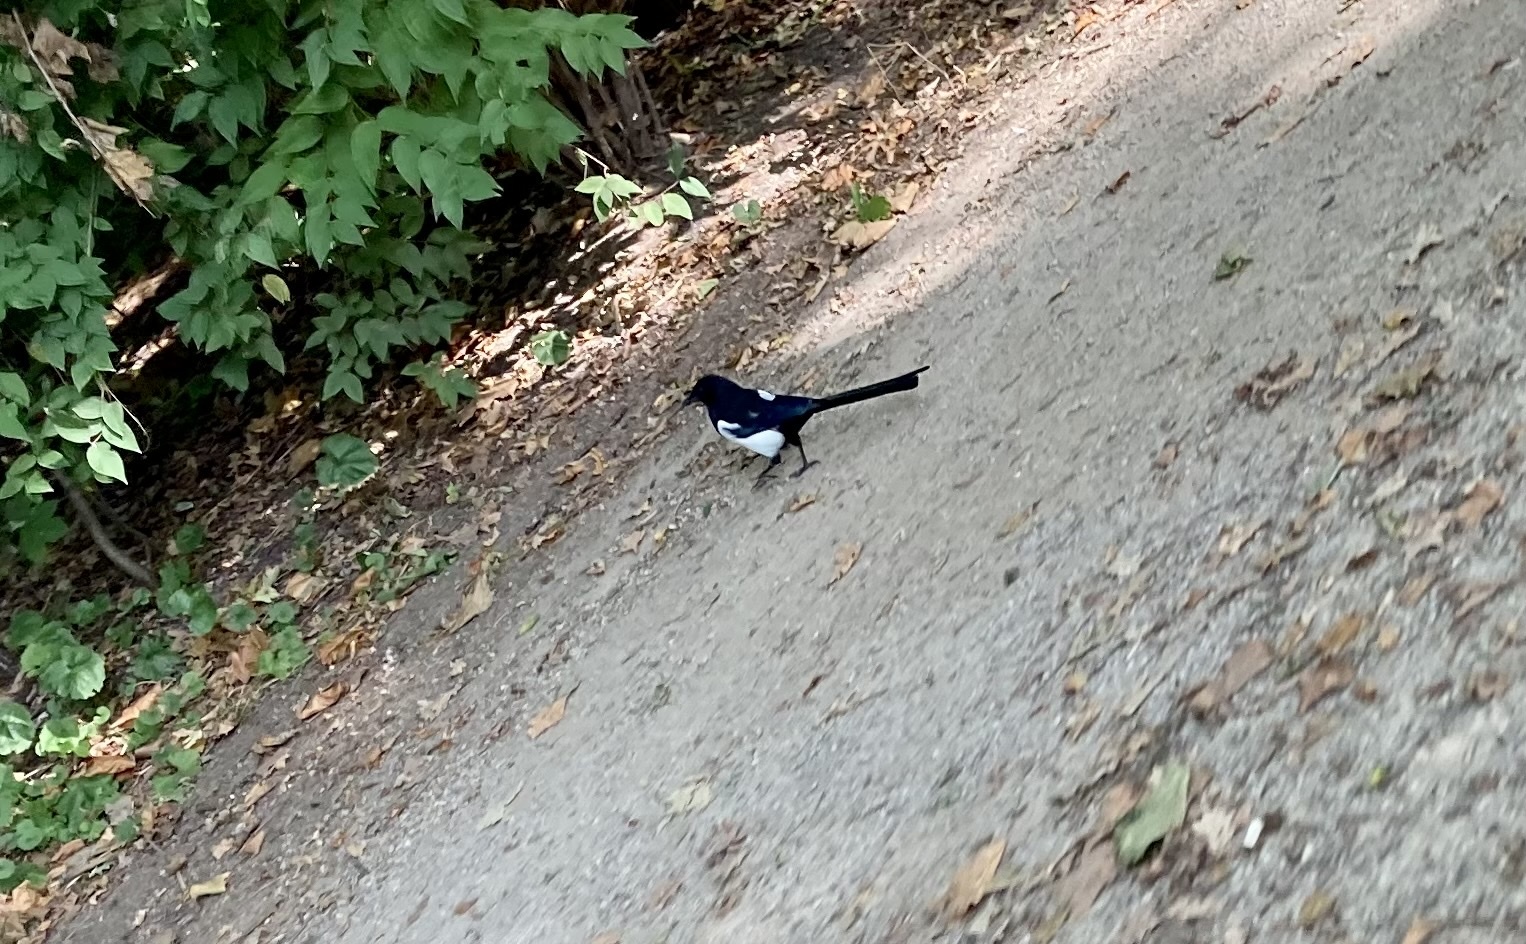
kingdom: Animalia
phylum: Chordata
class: Aves
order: Passeriformes
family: Corvidae
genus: Pica
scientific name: Pica pica
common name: Eurasian magpie
